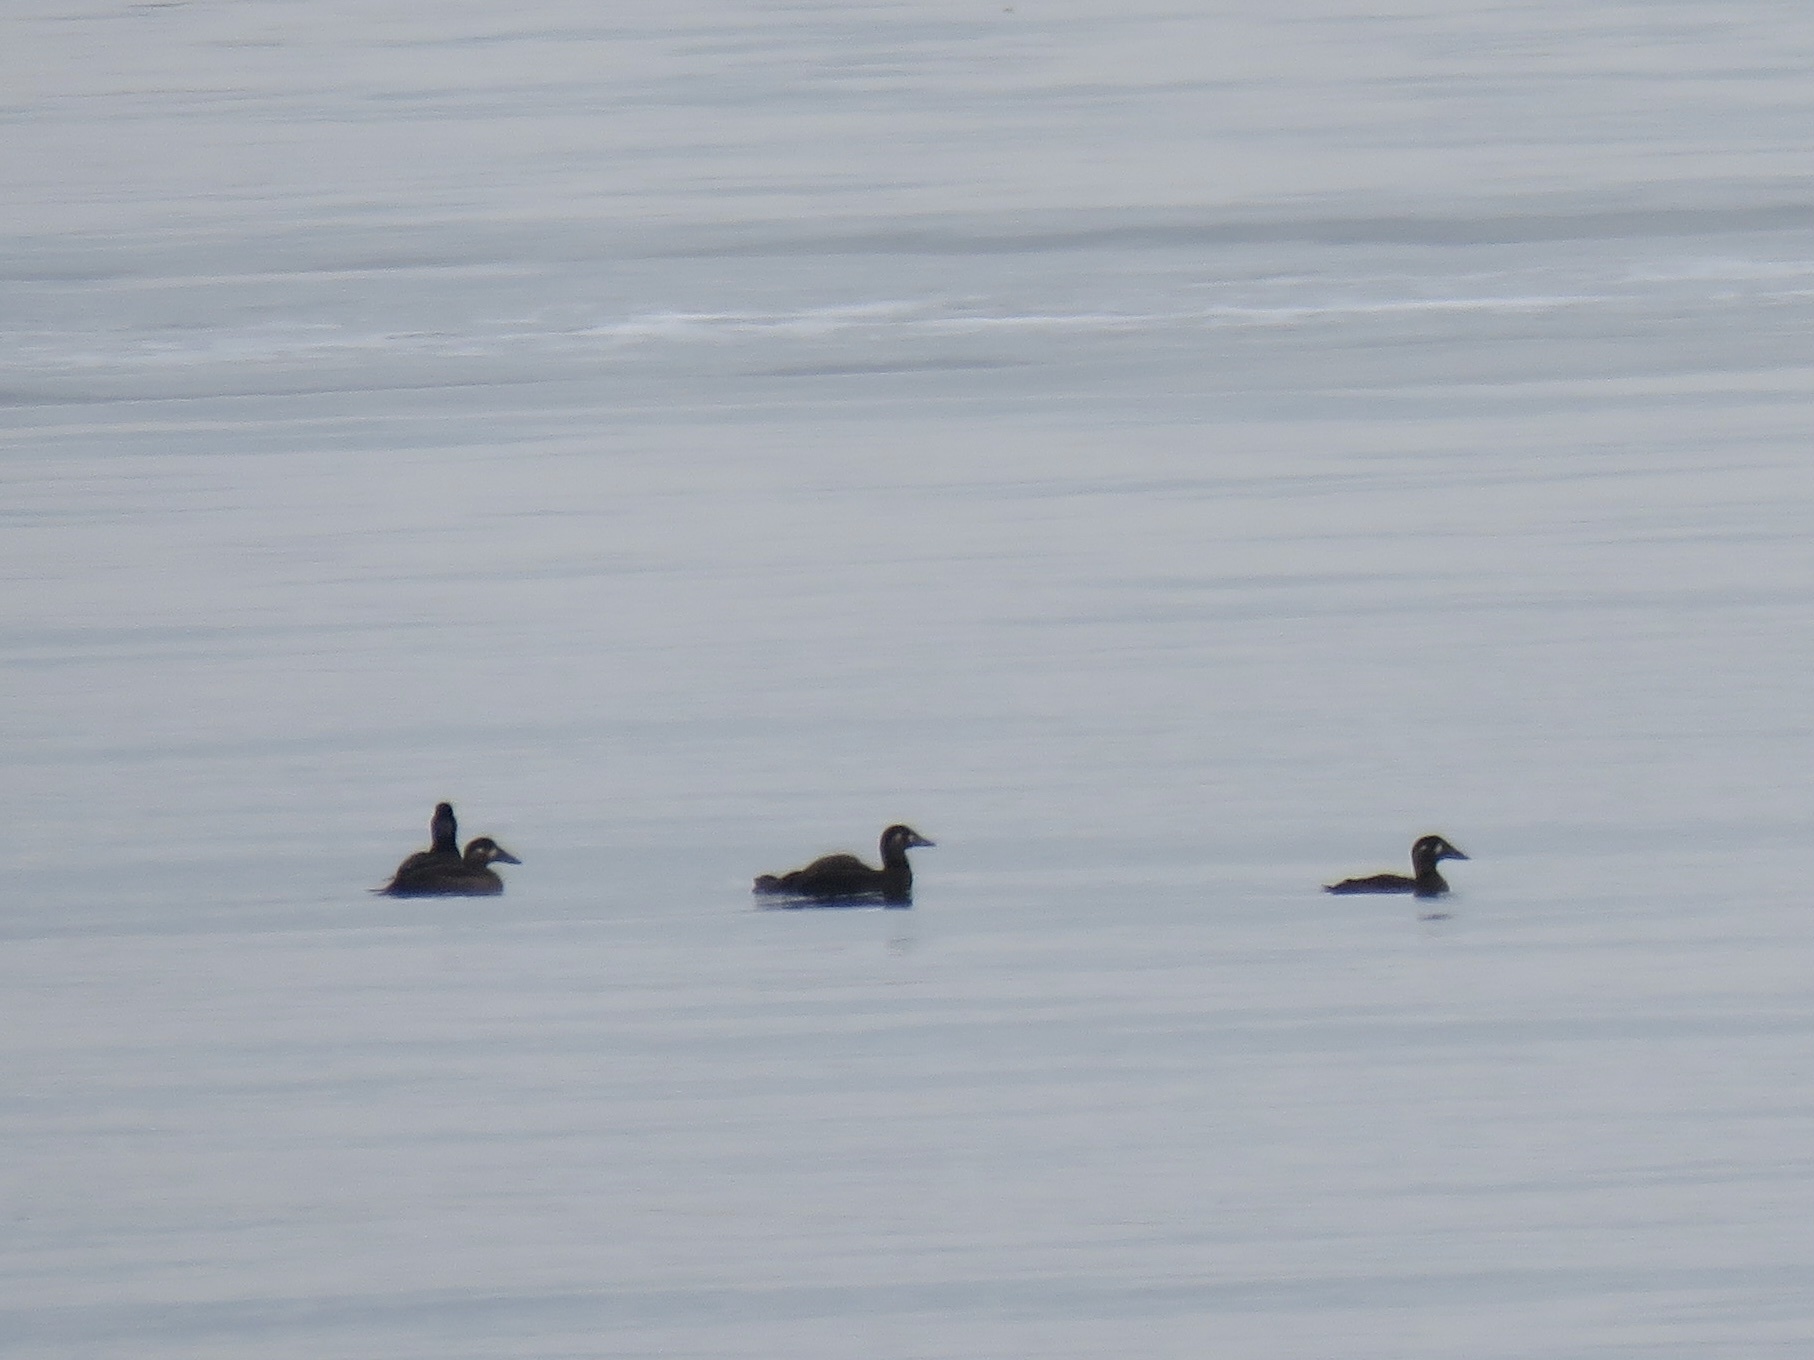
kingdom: Animalia
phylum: Chordata
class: Aves
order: Anseriformes
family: Anatidae
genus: Melanitta
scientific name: Melanitta perspicillata
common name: Surf scoter
